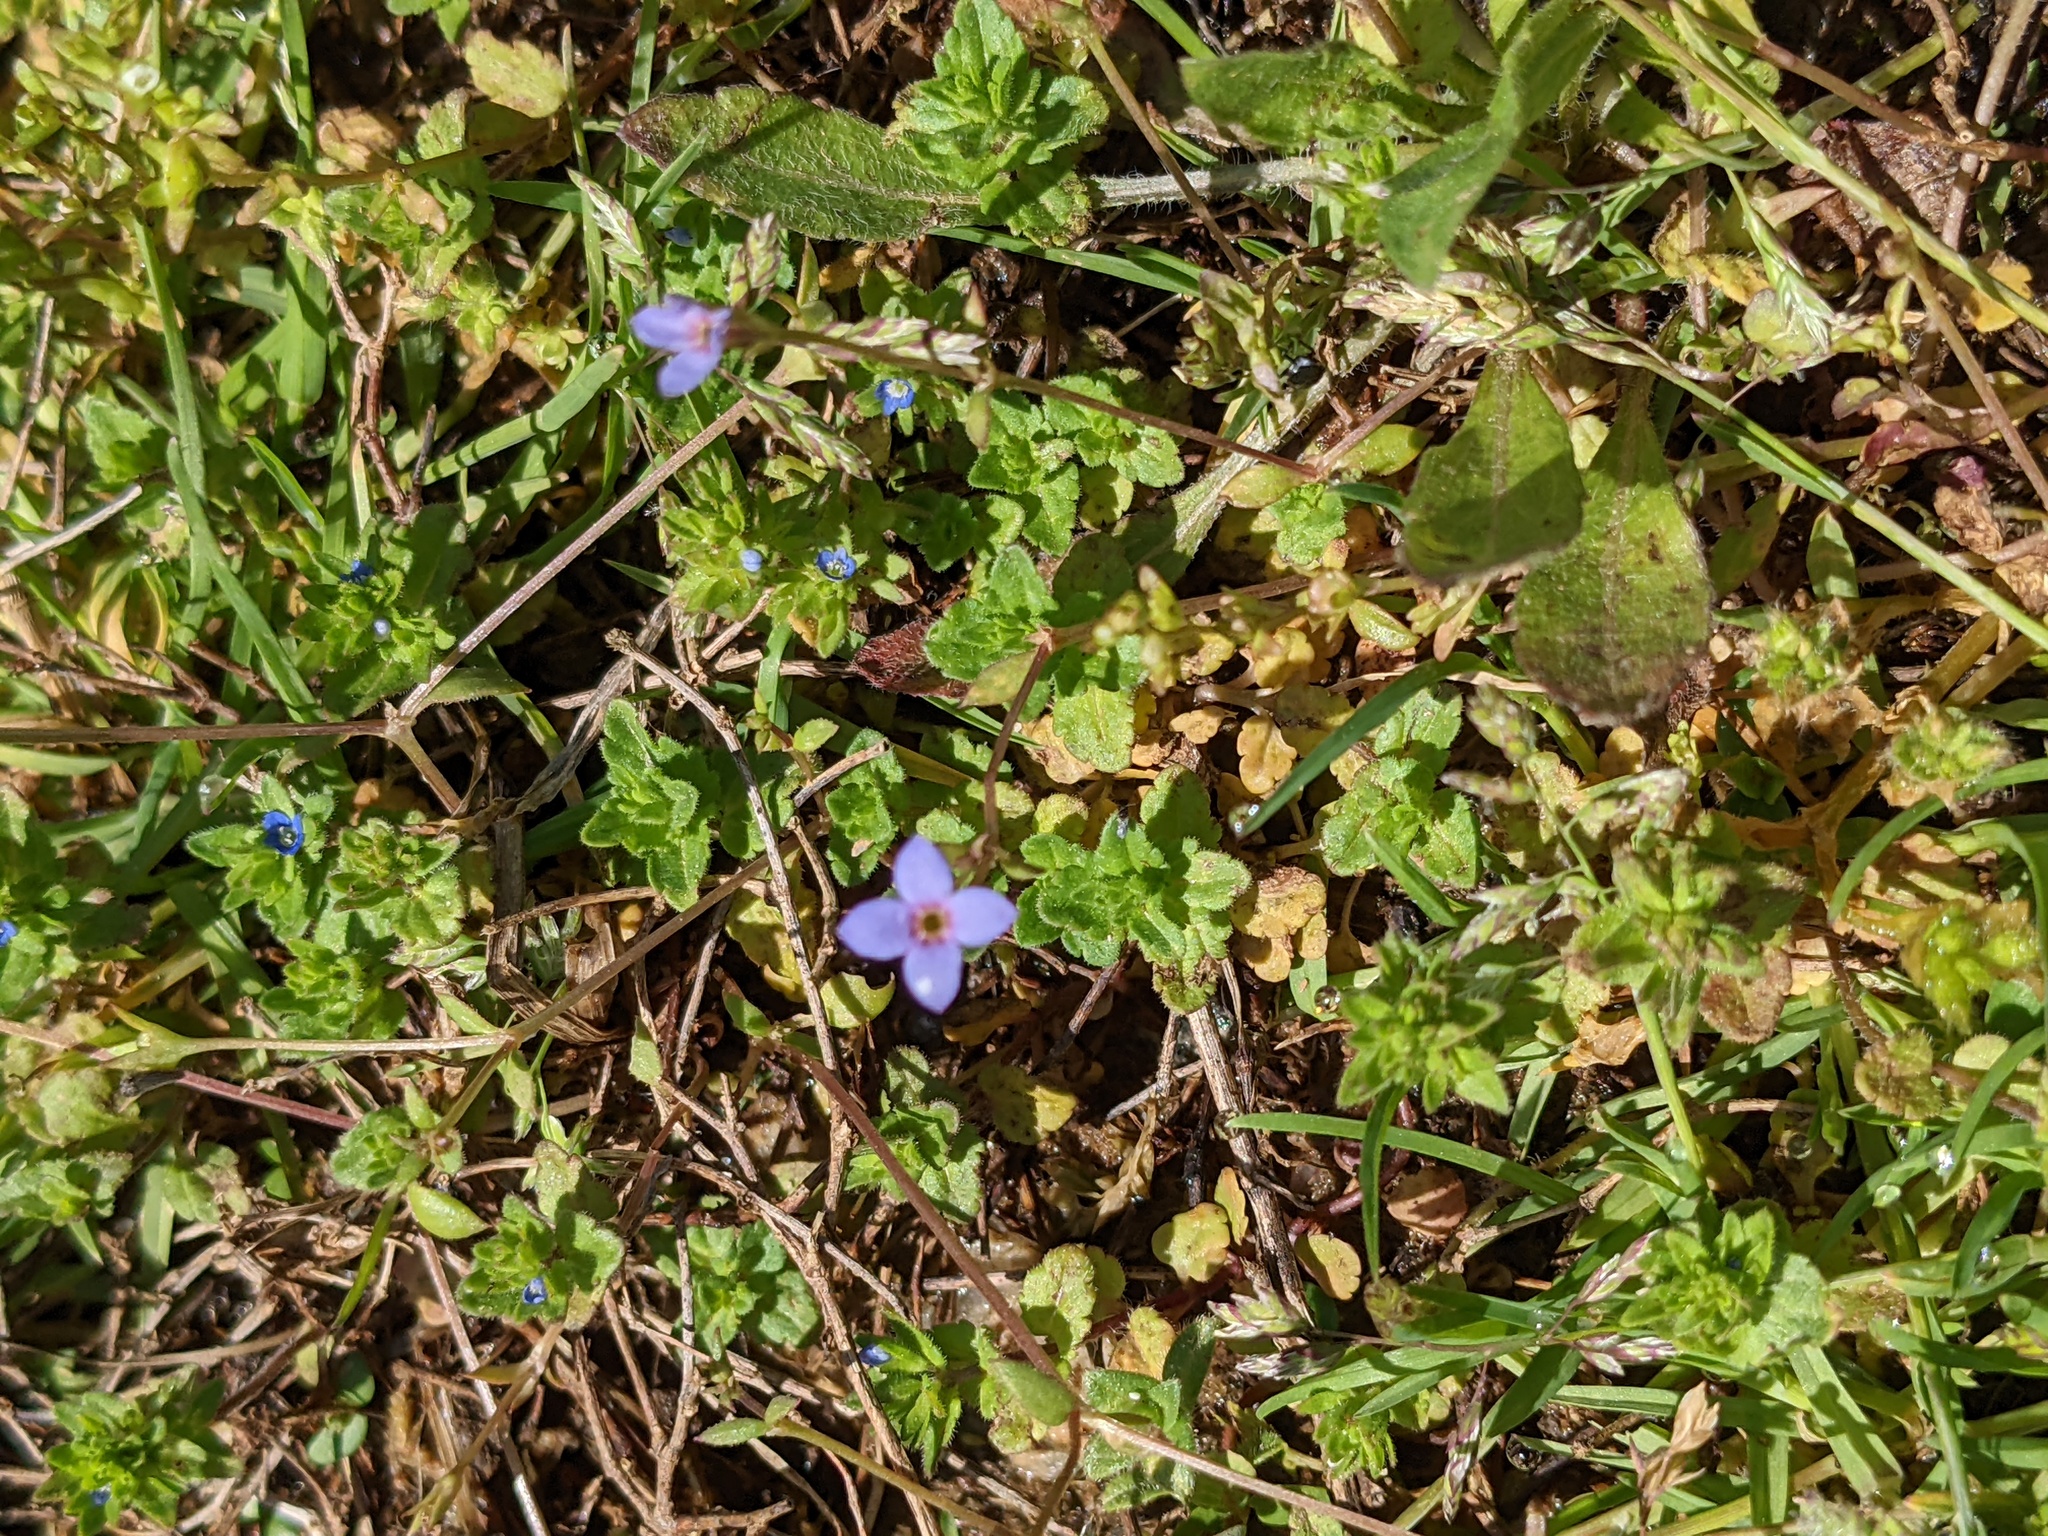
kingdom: Plantae
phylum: Tracheophyta
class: Magnoliopsida
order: Gentianales
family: Rubiaceae
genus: Houstonia
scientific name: Houstonia pusilla
